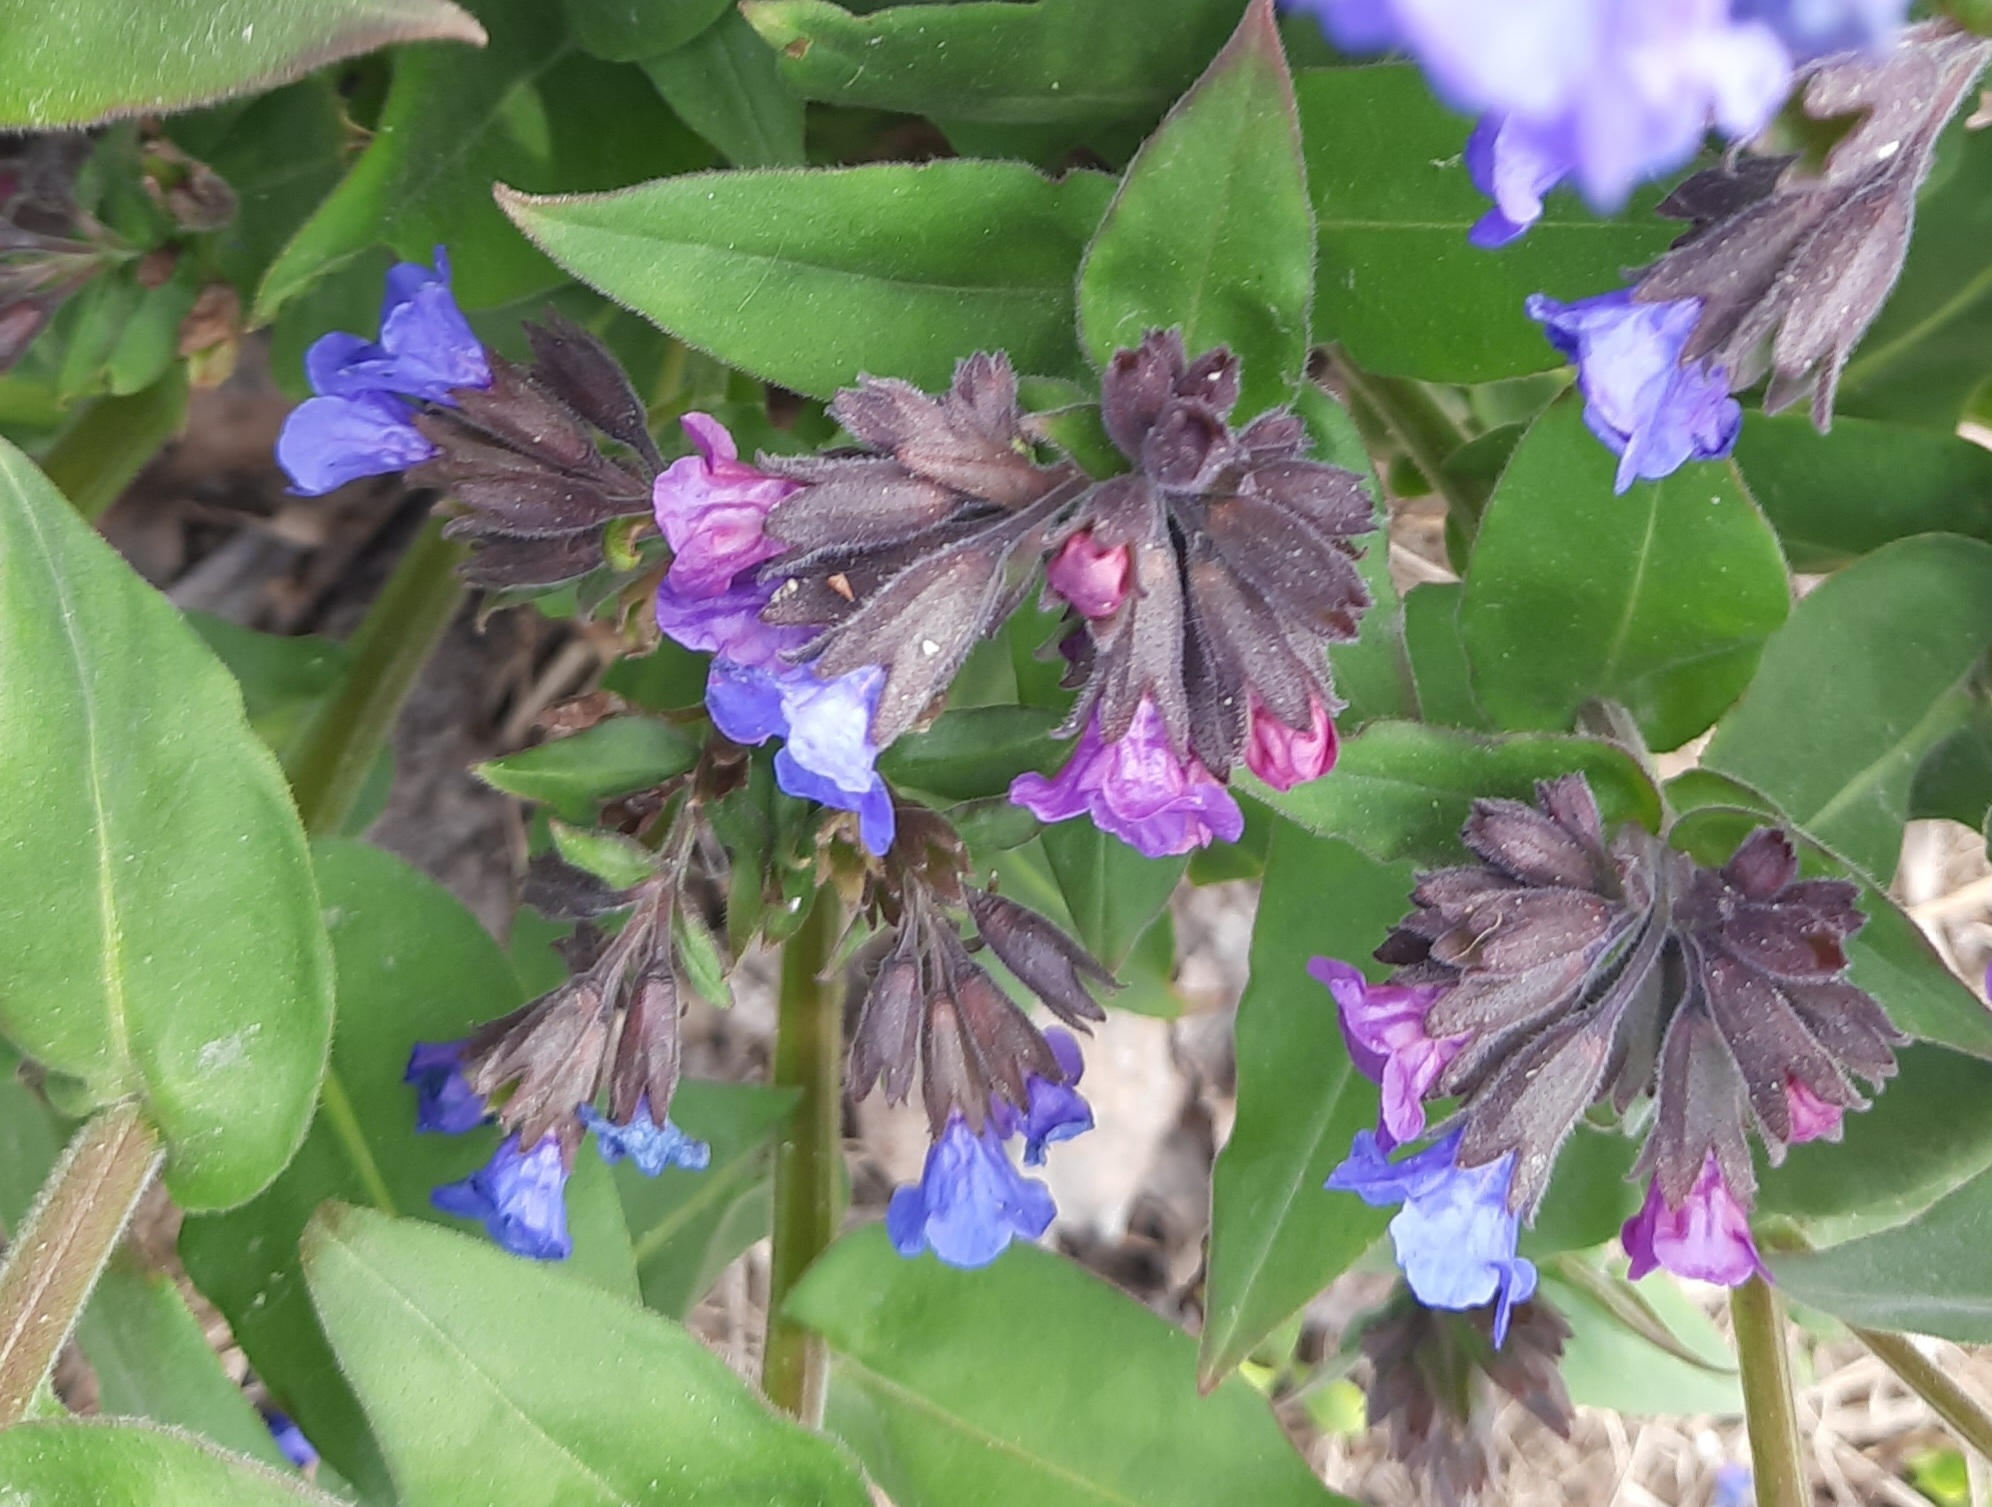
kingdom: Plantae
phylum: Tracheophyta
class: Magnoliopsida
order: Boraginales
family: Boraginaceae
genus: Pulmonaria
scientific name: Pulmonaria mollis
